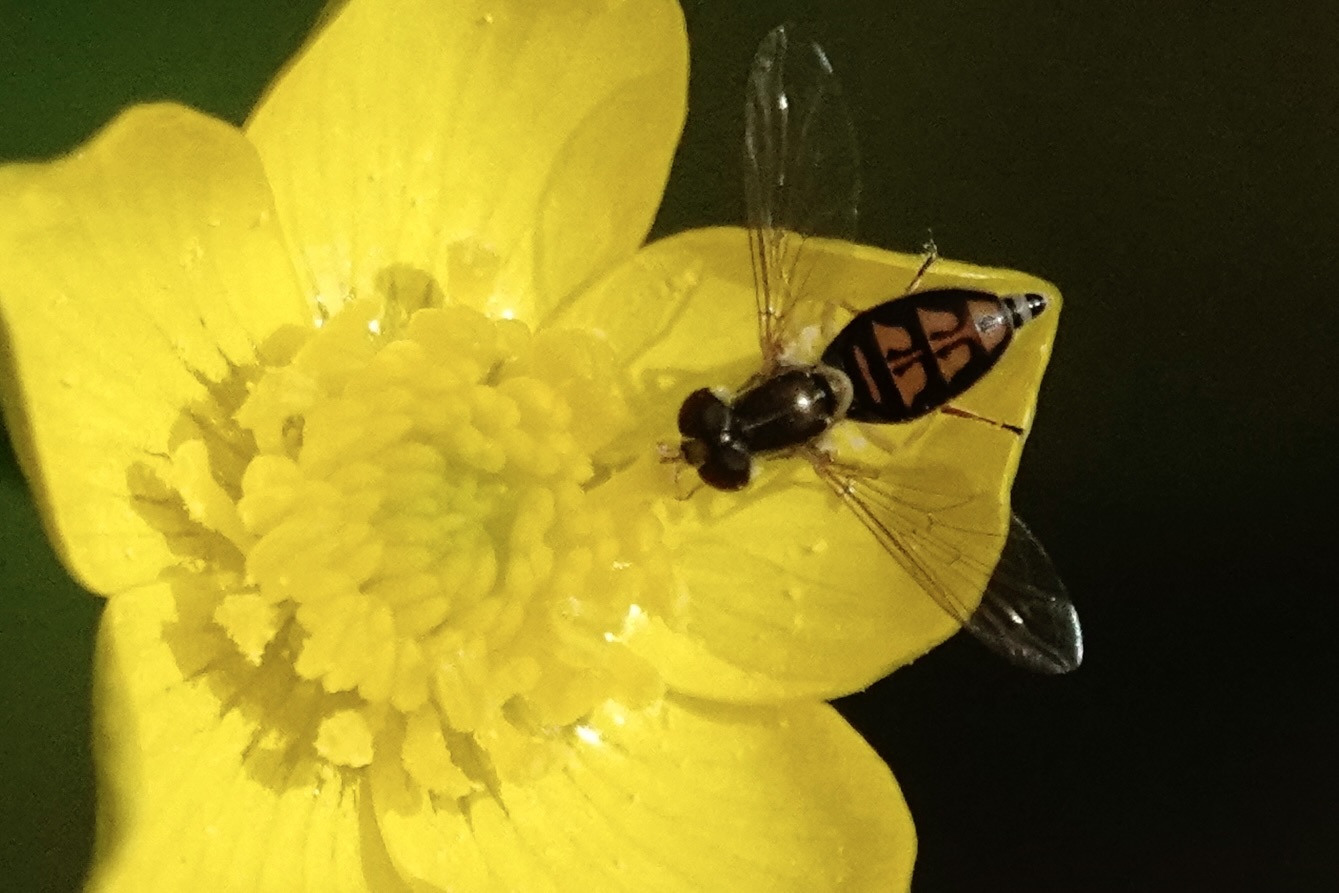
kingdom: Animalia
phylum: Arthropoda
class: Insecta
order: Diptera
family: Syrphidae
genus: Toxomerus
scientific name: Toxomerus marginatus
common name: Syrphid fly
